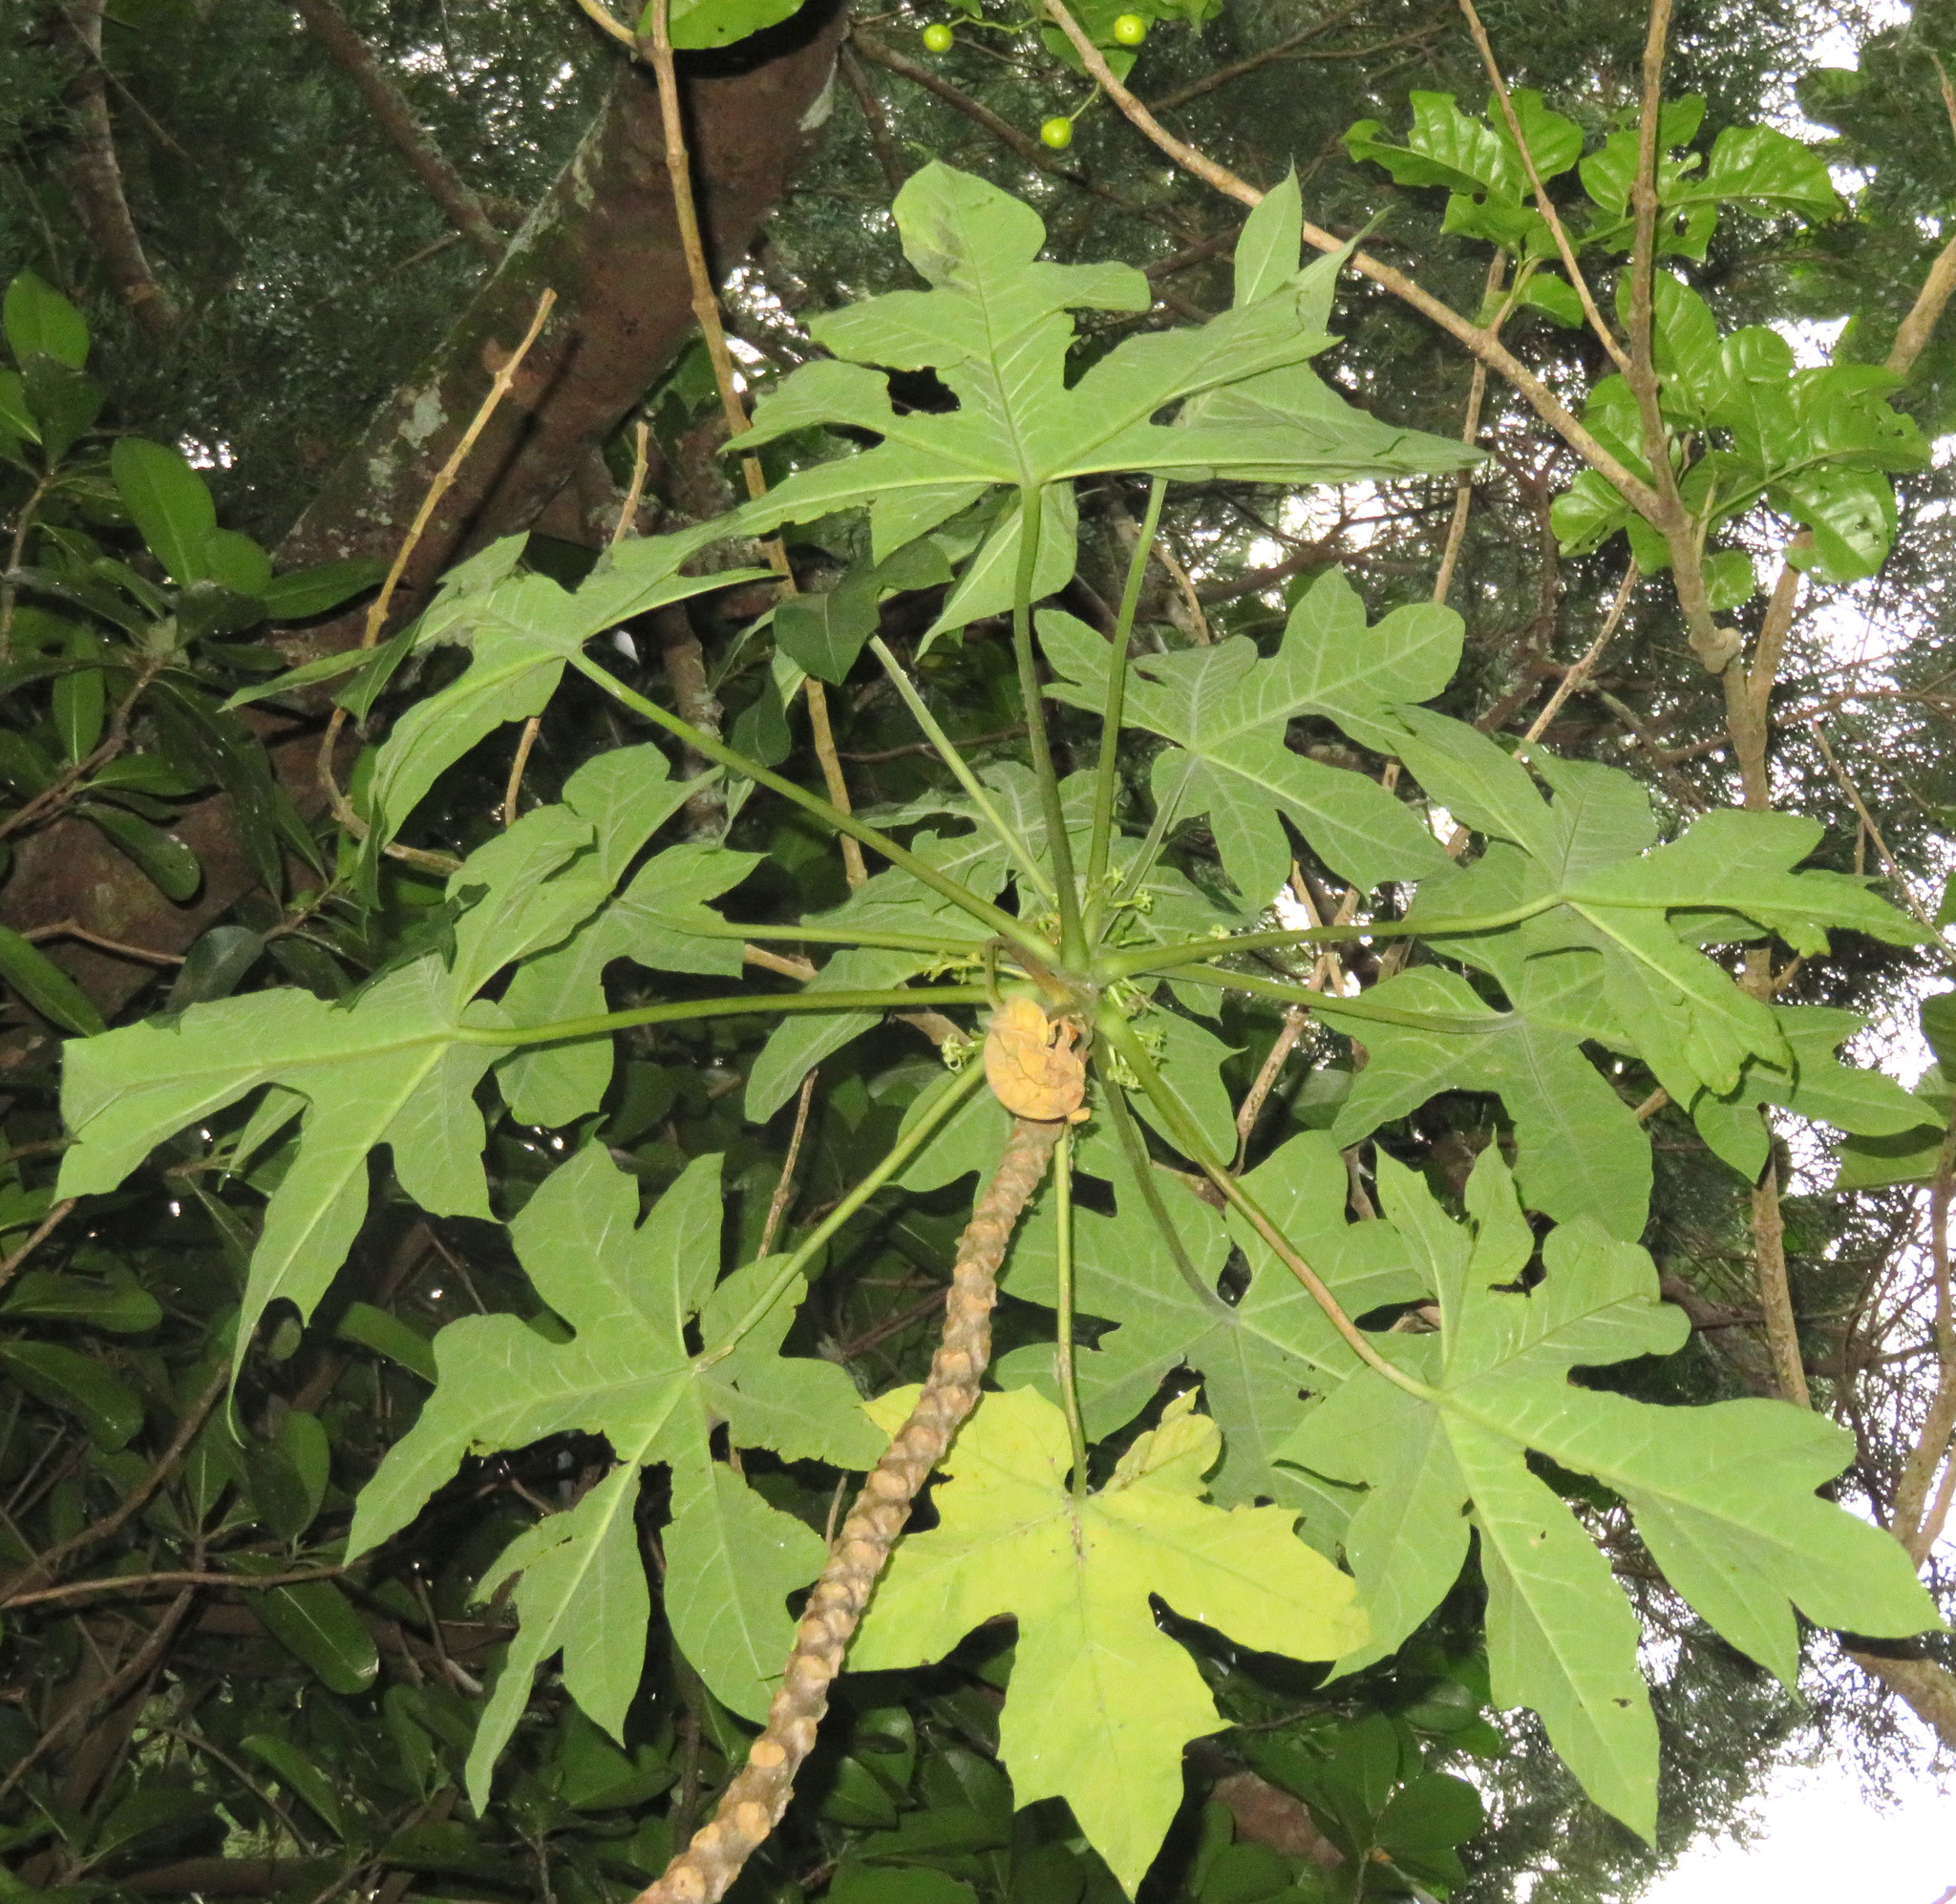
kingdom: Plantae
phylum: Tracheophyta
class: Magnoliopsida
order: Brassicales
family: Caricaceae
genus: Vasconcellea
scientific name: Vasconcellea pubescens
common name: Mountain papaya
